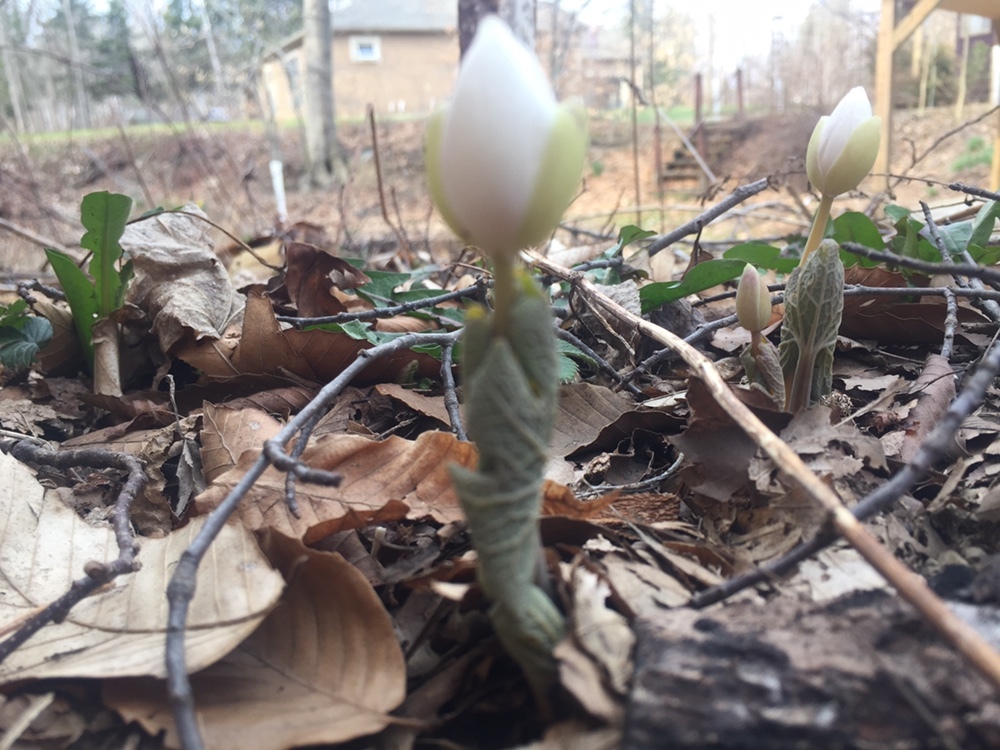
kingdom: Plantae
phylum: Tracheophyta
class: Magnoliopsida
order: Ranunculales
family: Papaveraceae
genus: Sanguinaria
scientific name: Sanguinaria canadensis
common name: Bloodroot
